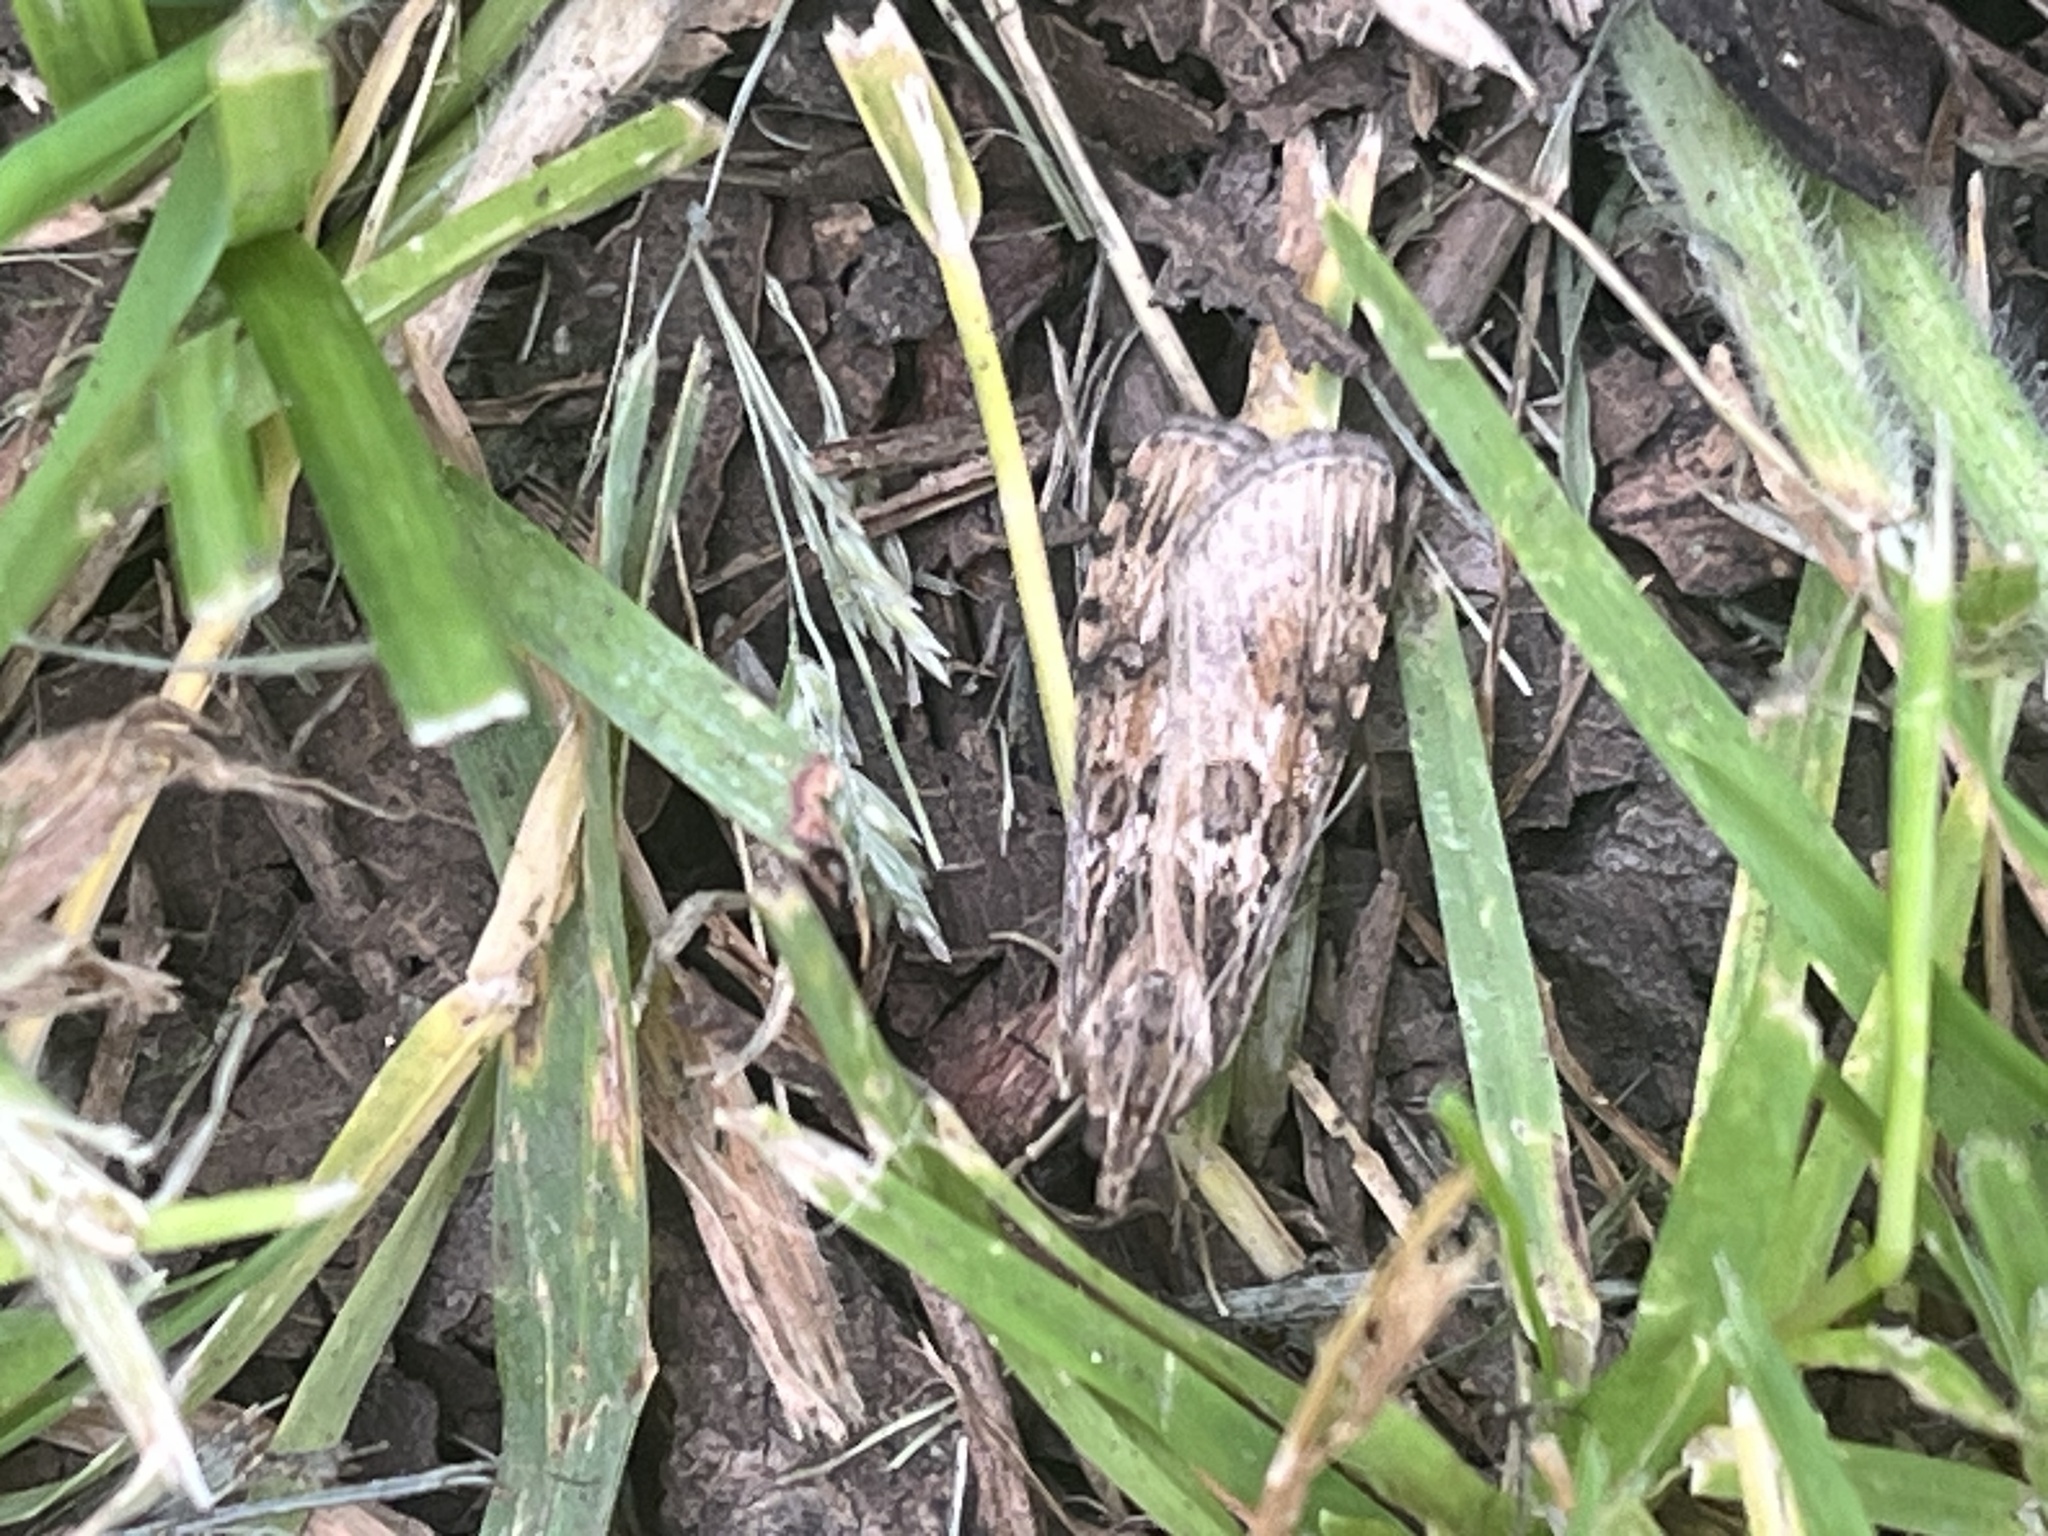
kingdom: Animalia
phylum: Arthropoda
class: Insecta
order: Lepidoptera
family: Crambidae
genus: Nomophila
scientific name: Nomophila nearctica
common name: American rush veneer
